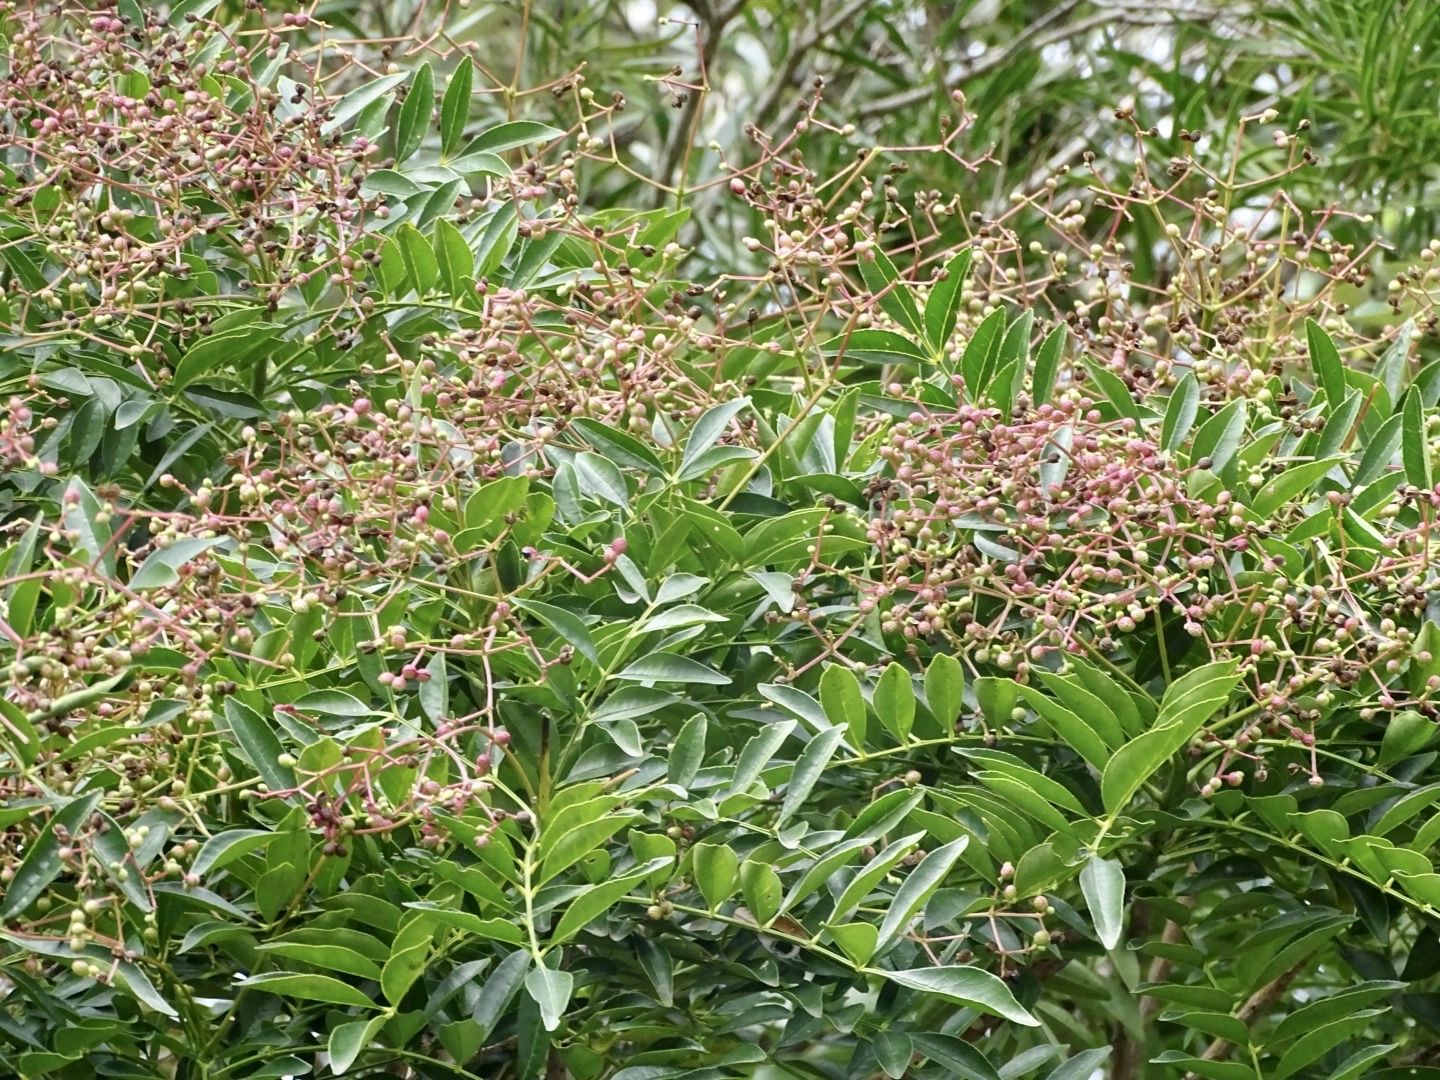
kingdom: Plantae
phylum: Tracheophyta
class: Magnoliopsida
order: Sapindales
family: Rutaceae
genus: Zanthoxylum
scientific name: Zanthoxylum avicennae
